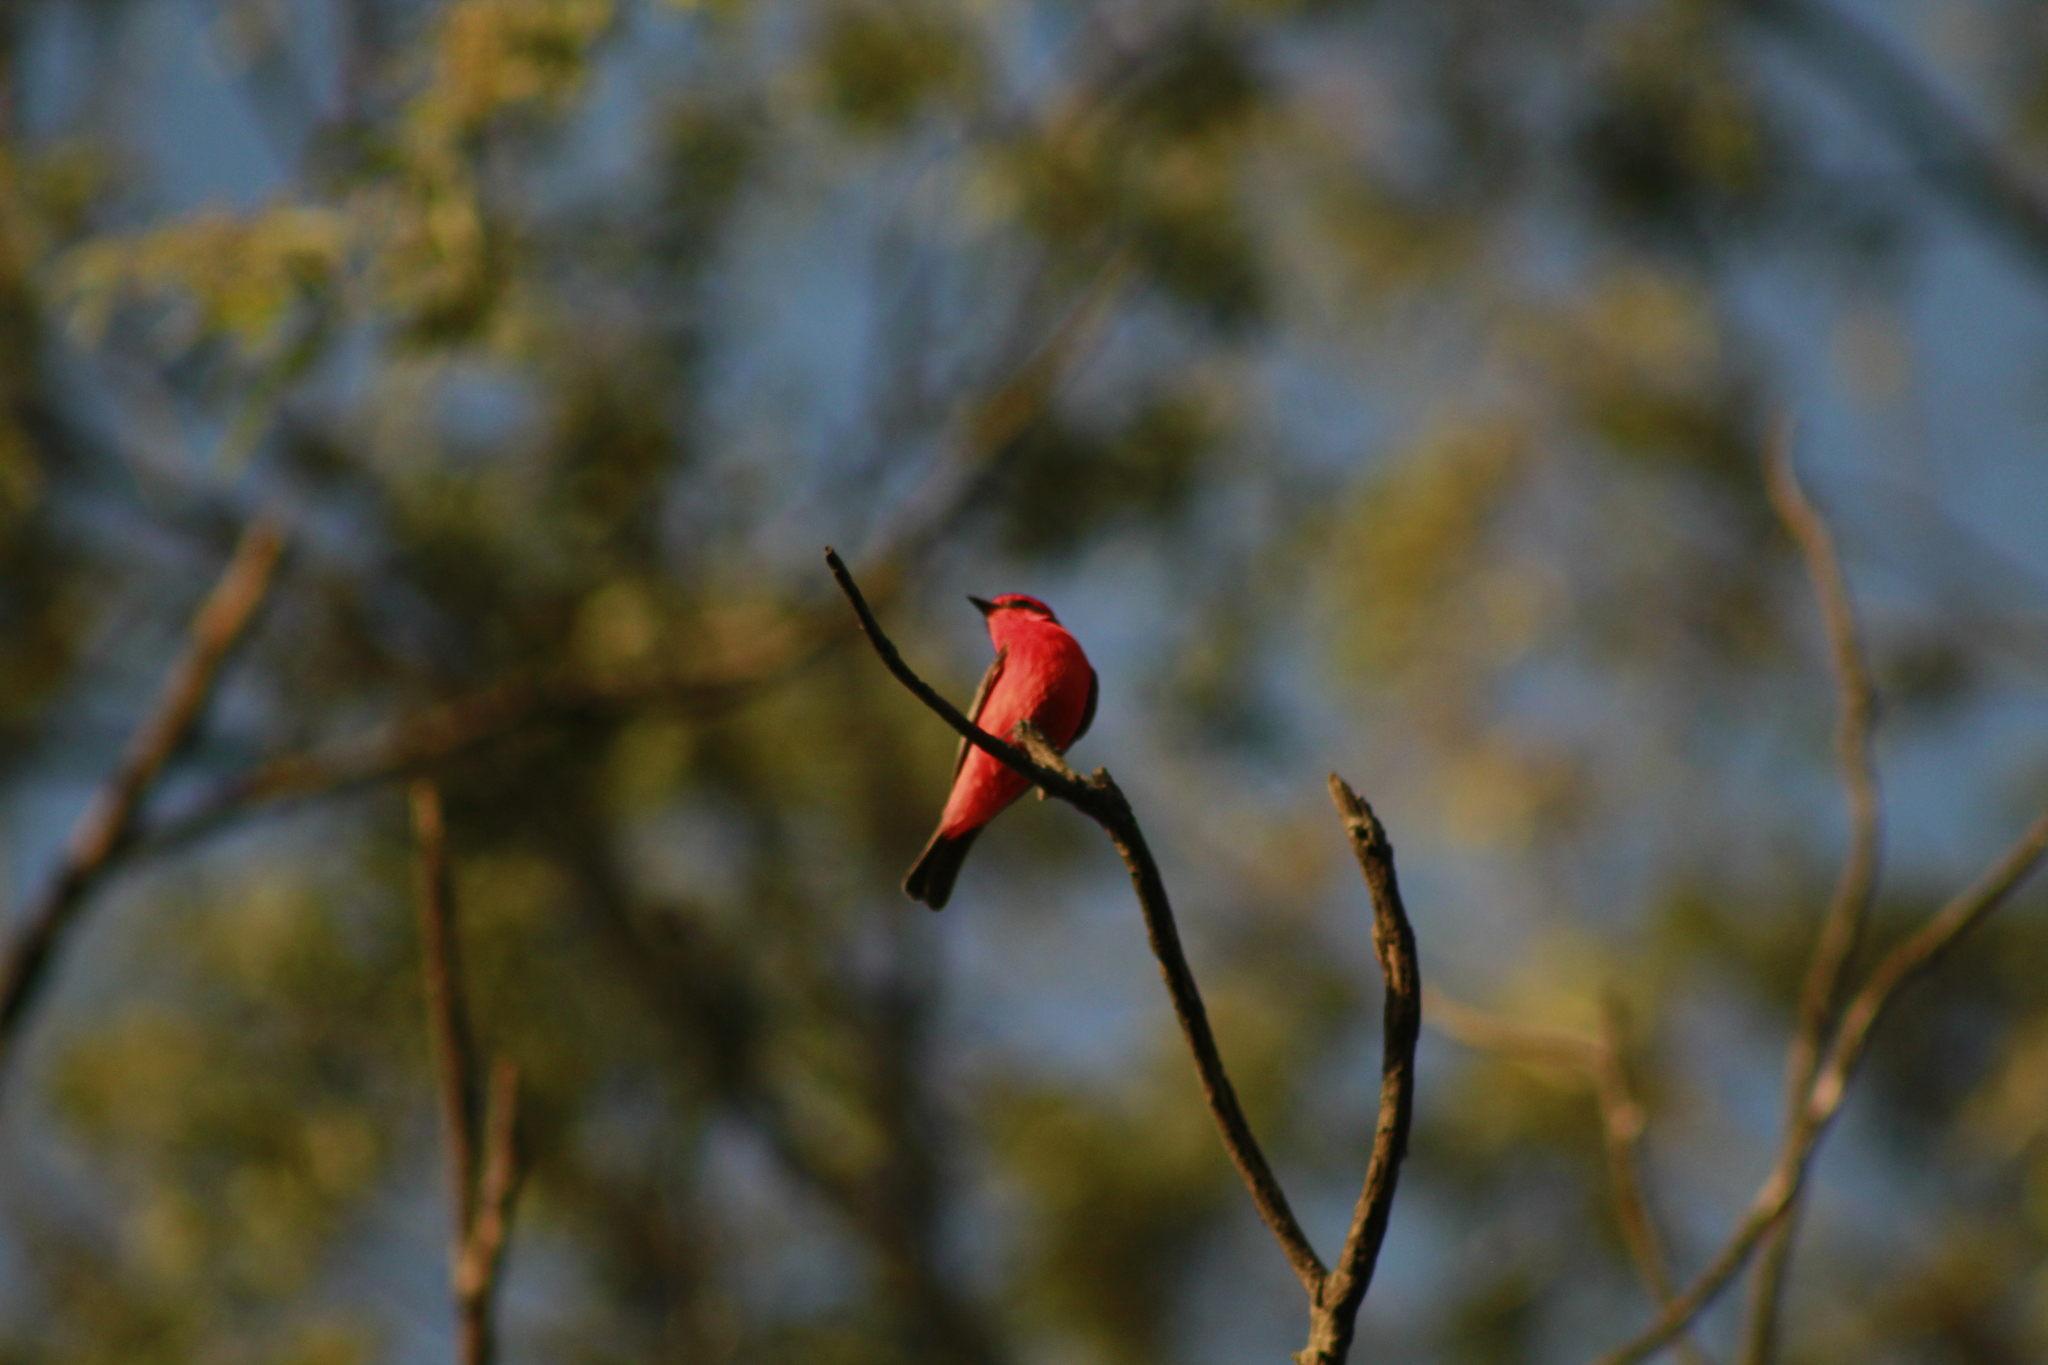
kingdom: Animalia
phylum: Chordata
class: Aves
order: Passeriformes
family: Tyrannidae
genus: Pyrocephalus
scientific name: Pyrocephalus rubinus
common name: Vermilion flycatcher
